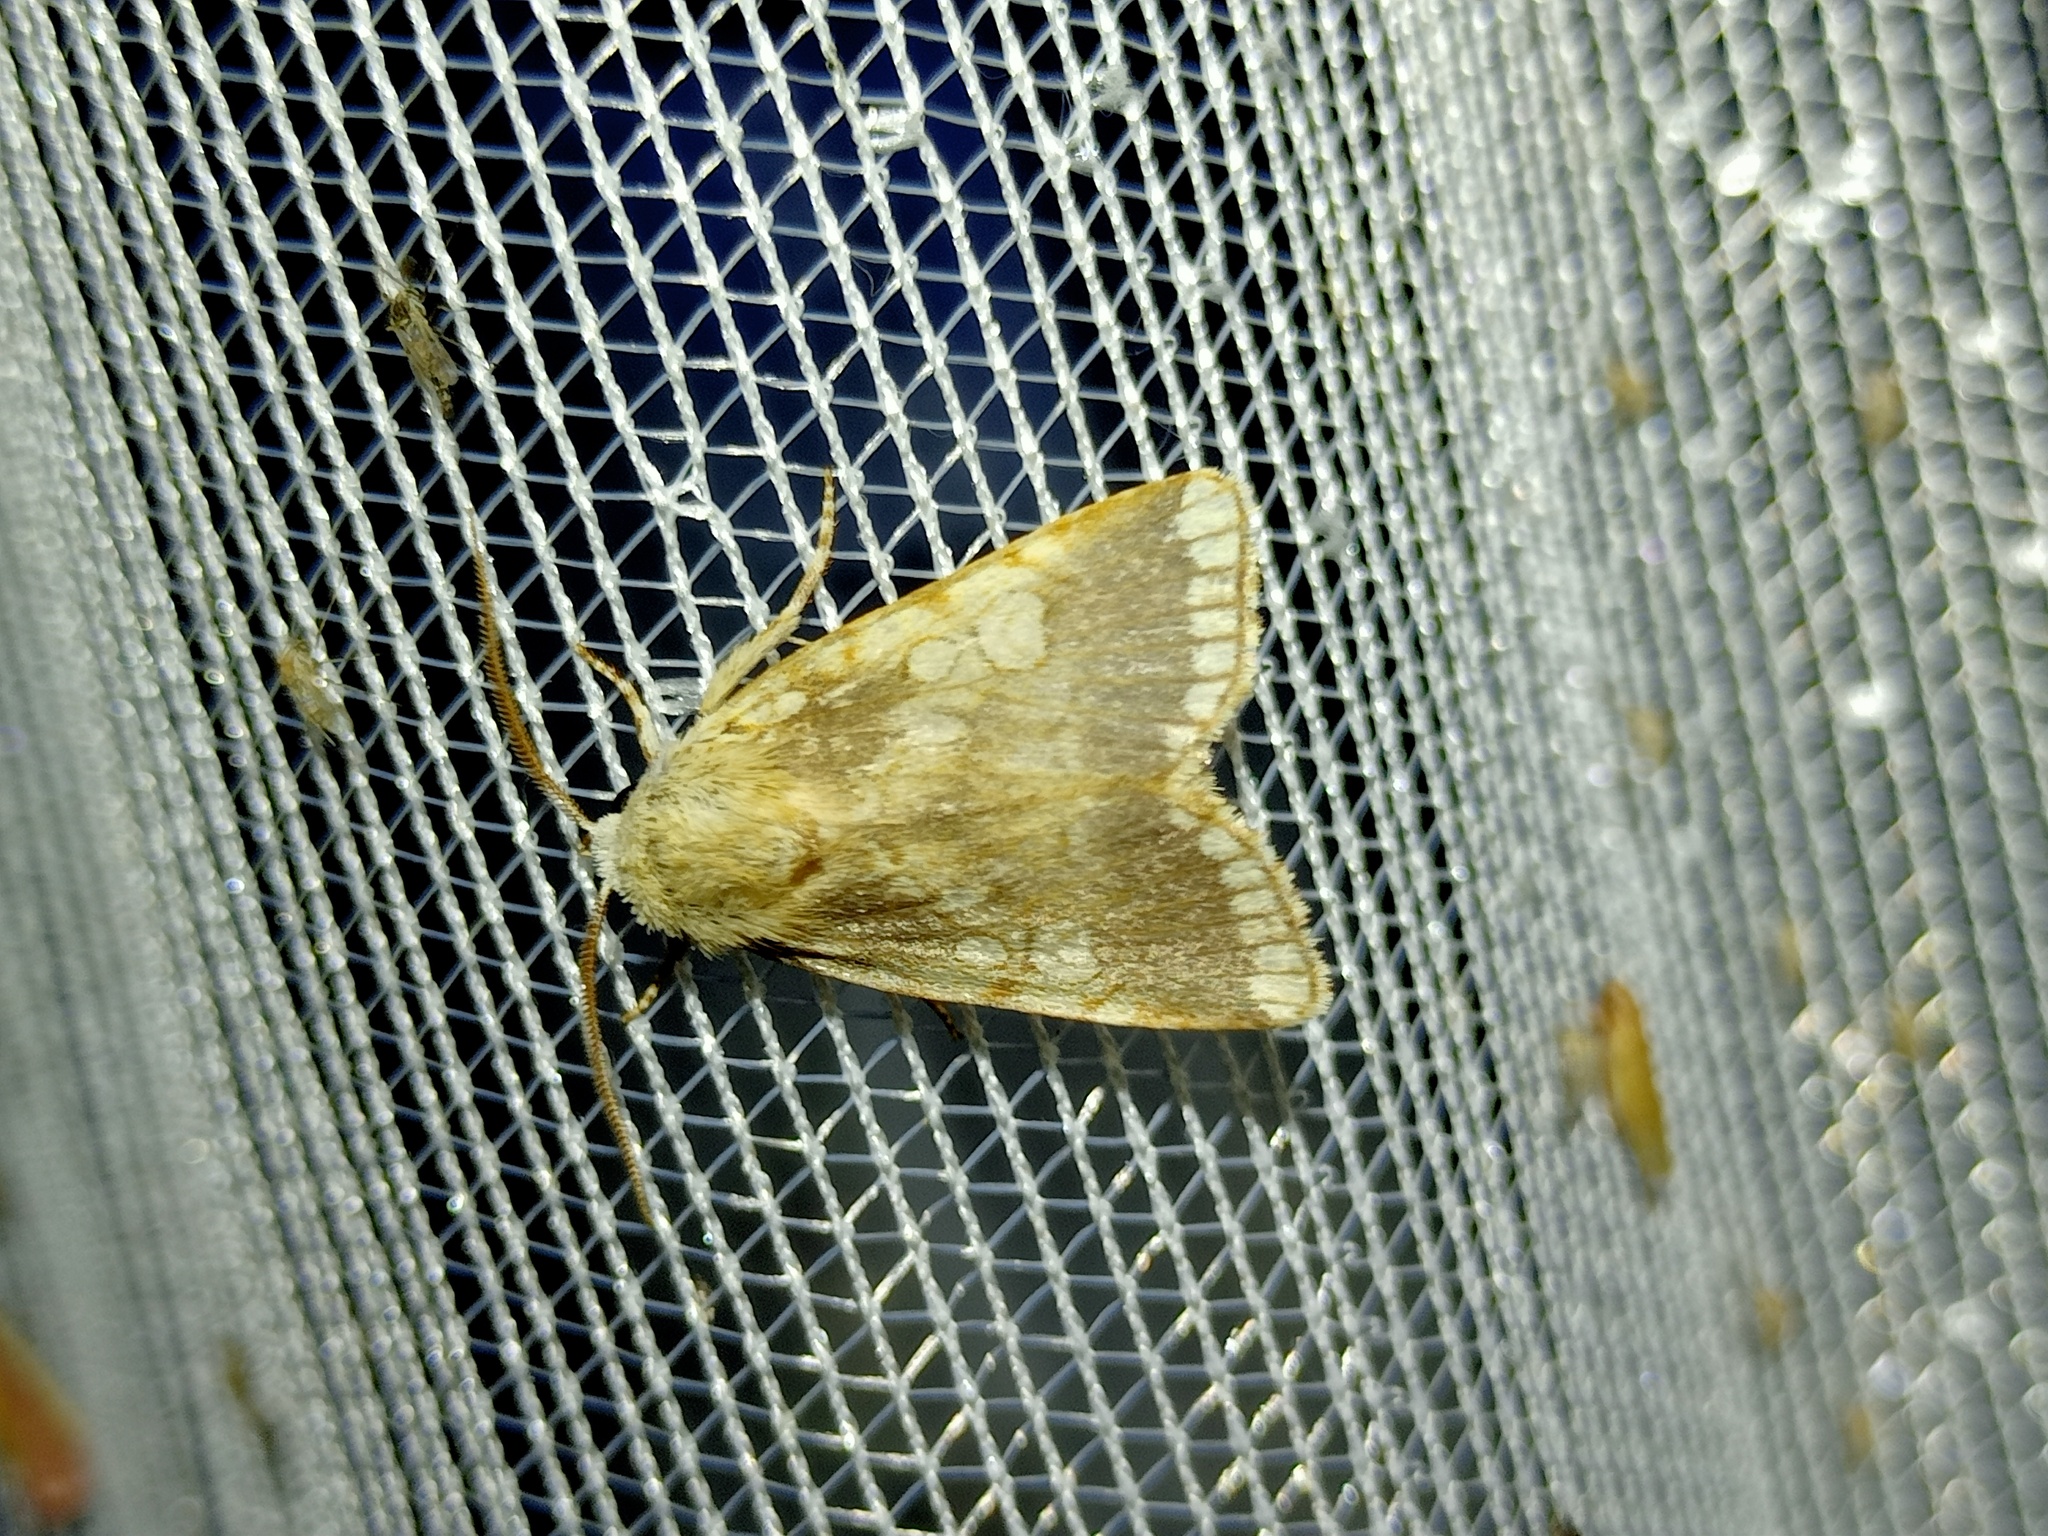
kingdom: Animalia
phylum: Arthropoda
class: Insecta
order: Lepidoptera
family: Noctuidae
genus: Dicycla
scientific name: Dicycla oo
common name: Heart moth
